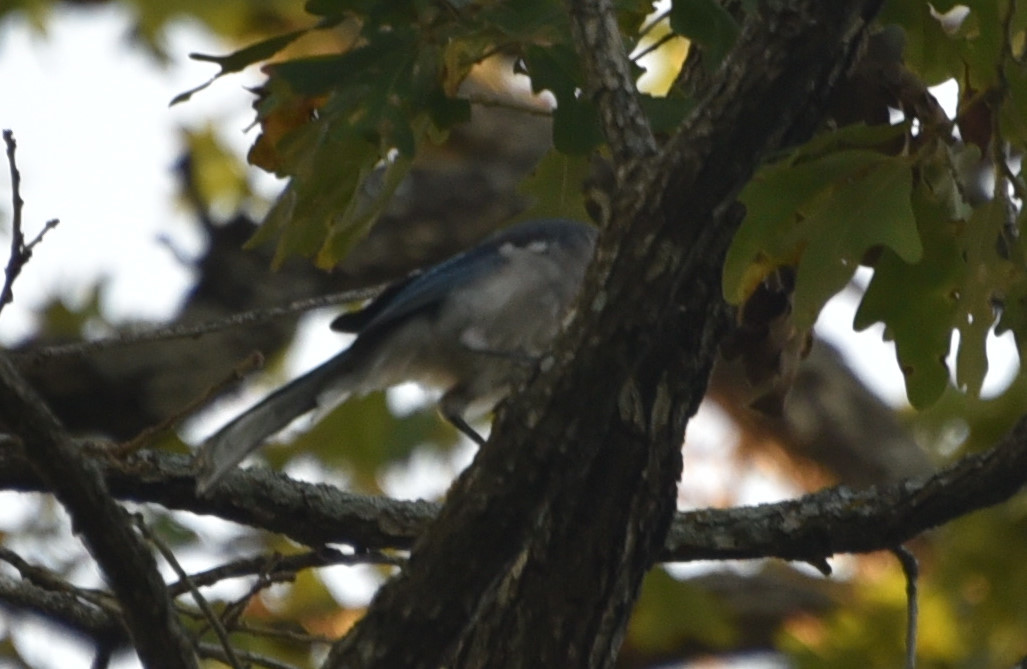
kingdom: Animalia
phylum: Chordata
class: Aves
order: Passeriformes
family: Corvidae
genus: Cyanocitta
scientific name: Cyanocitta cristata
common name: Blue jay
